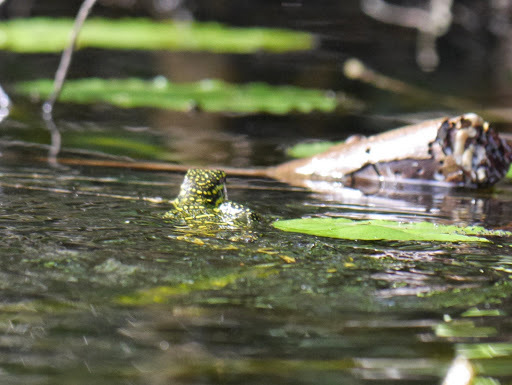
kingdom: Animalia
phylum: Chordata
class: Squamata
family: Varanidae
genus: Varanus
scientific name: Varanus niloticus
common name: Nile monitor
